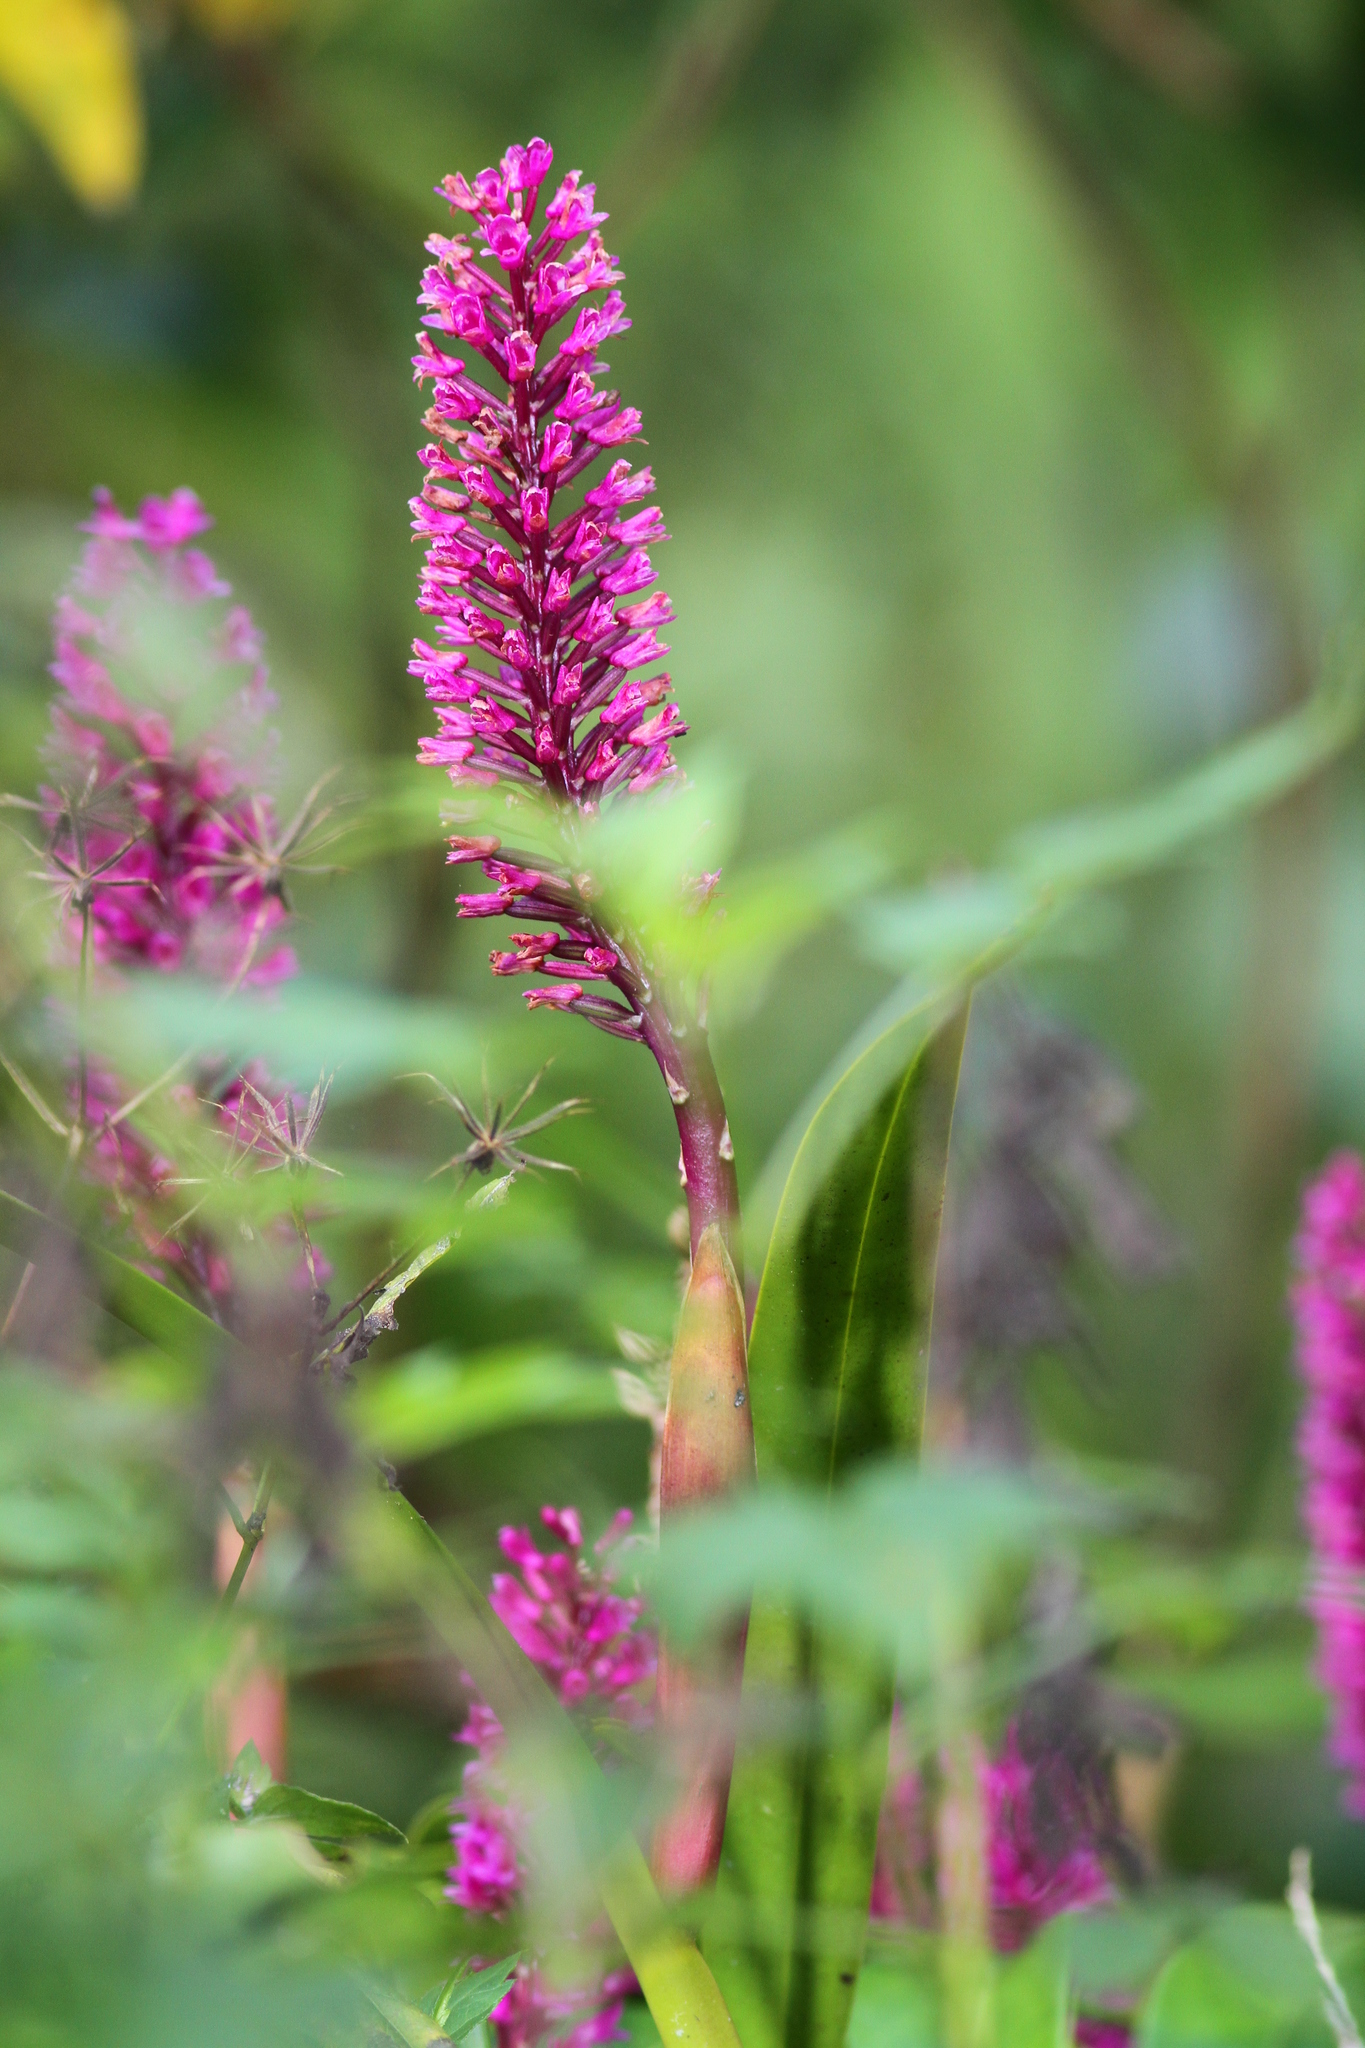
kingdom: Plantae
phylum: Tracheophyta
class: Liliopsida
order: Asparagales
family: Orchidaceae
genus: Arpophyllum
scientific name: Arpophyllum giganteum
